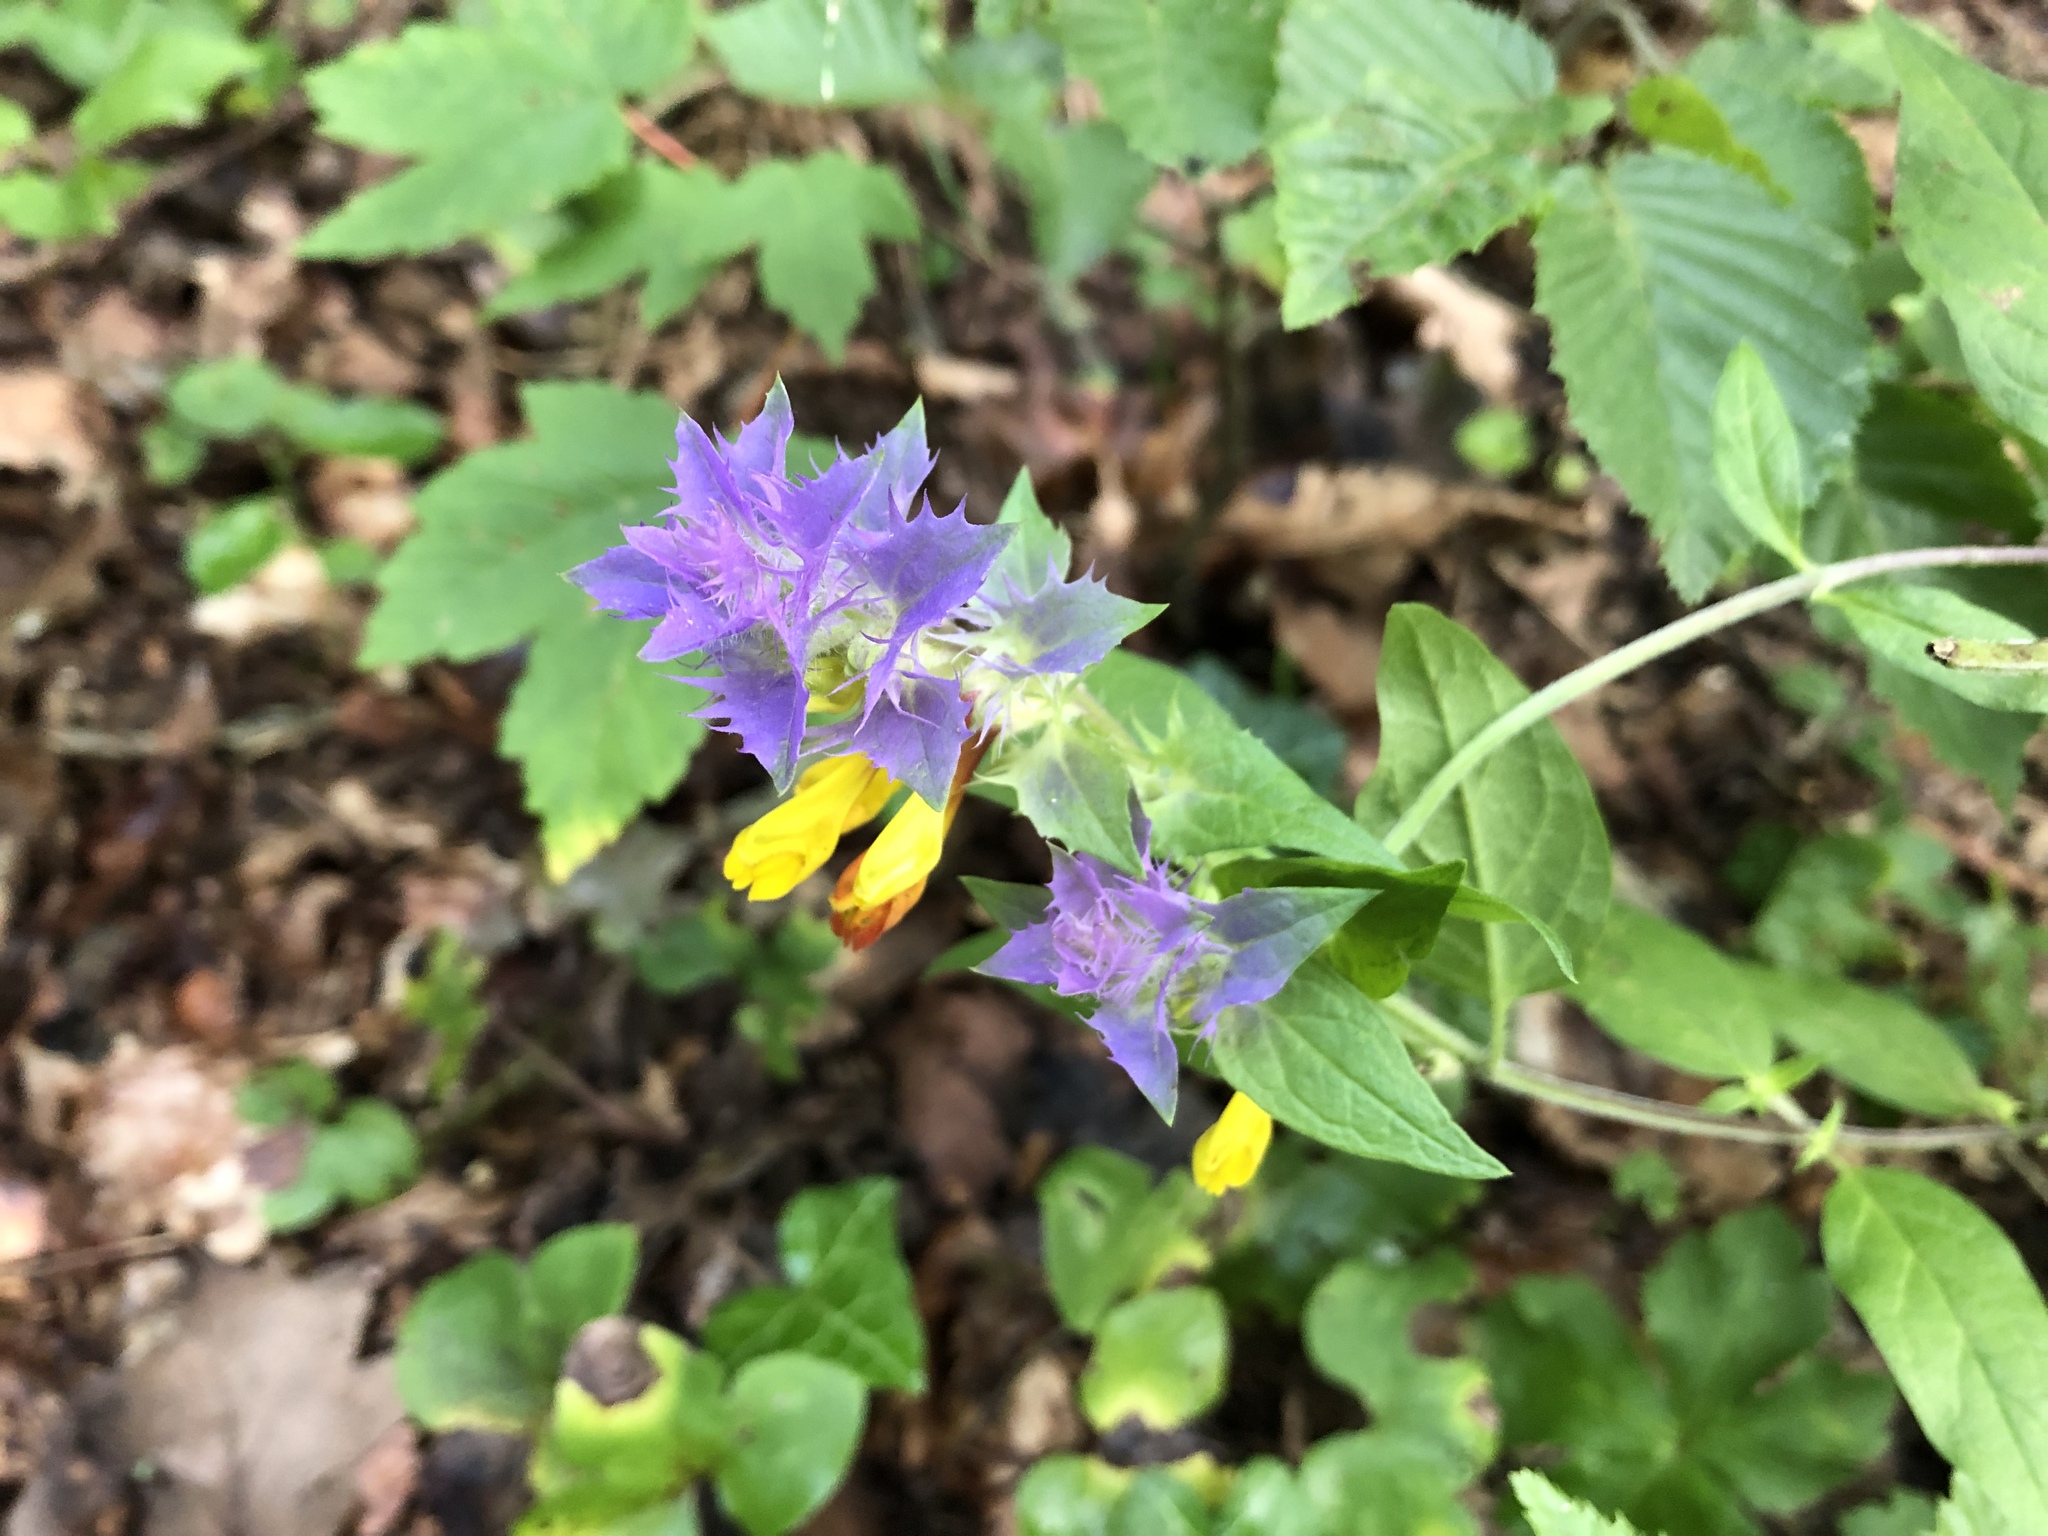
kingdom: Plantae
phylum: Tracheophyta
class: Magnoliopsida
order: Lamiales
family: Orobanchaceae
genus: Melampyrum
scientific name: Melampyrum nemorosum
